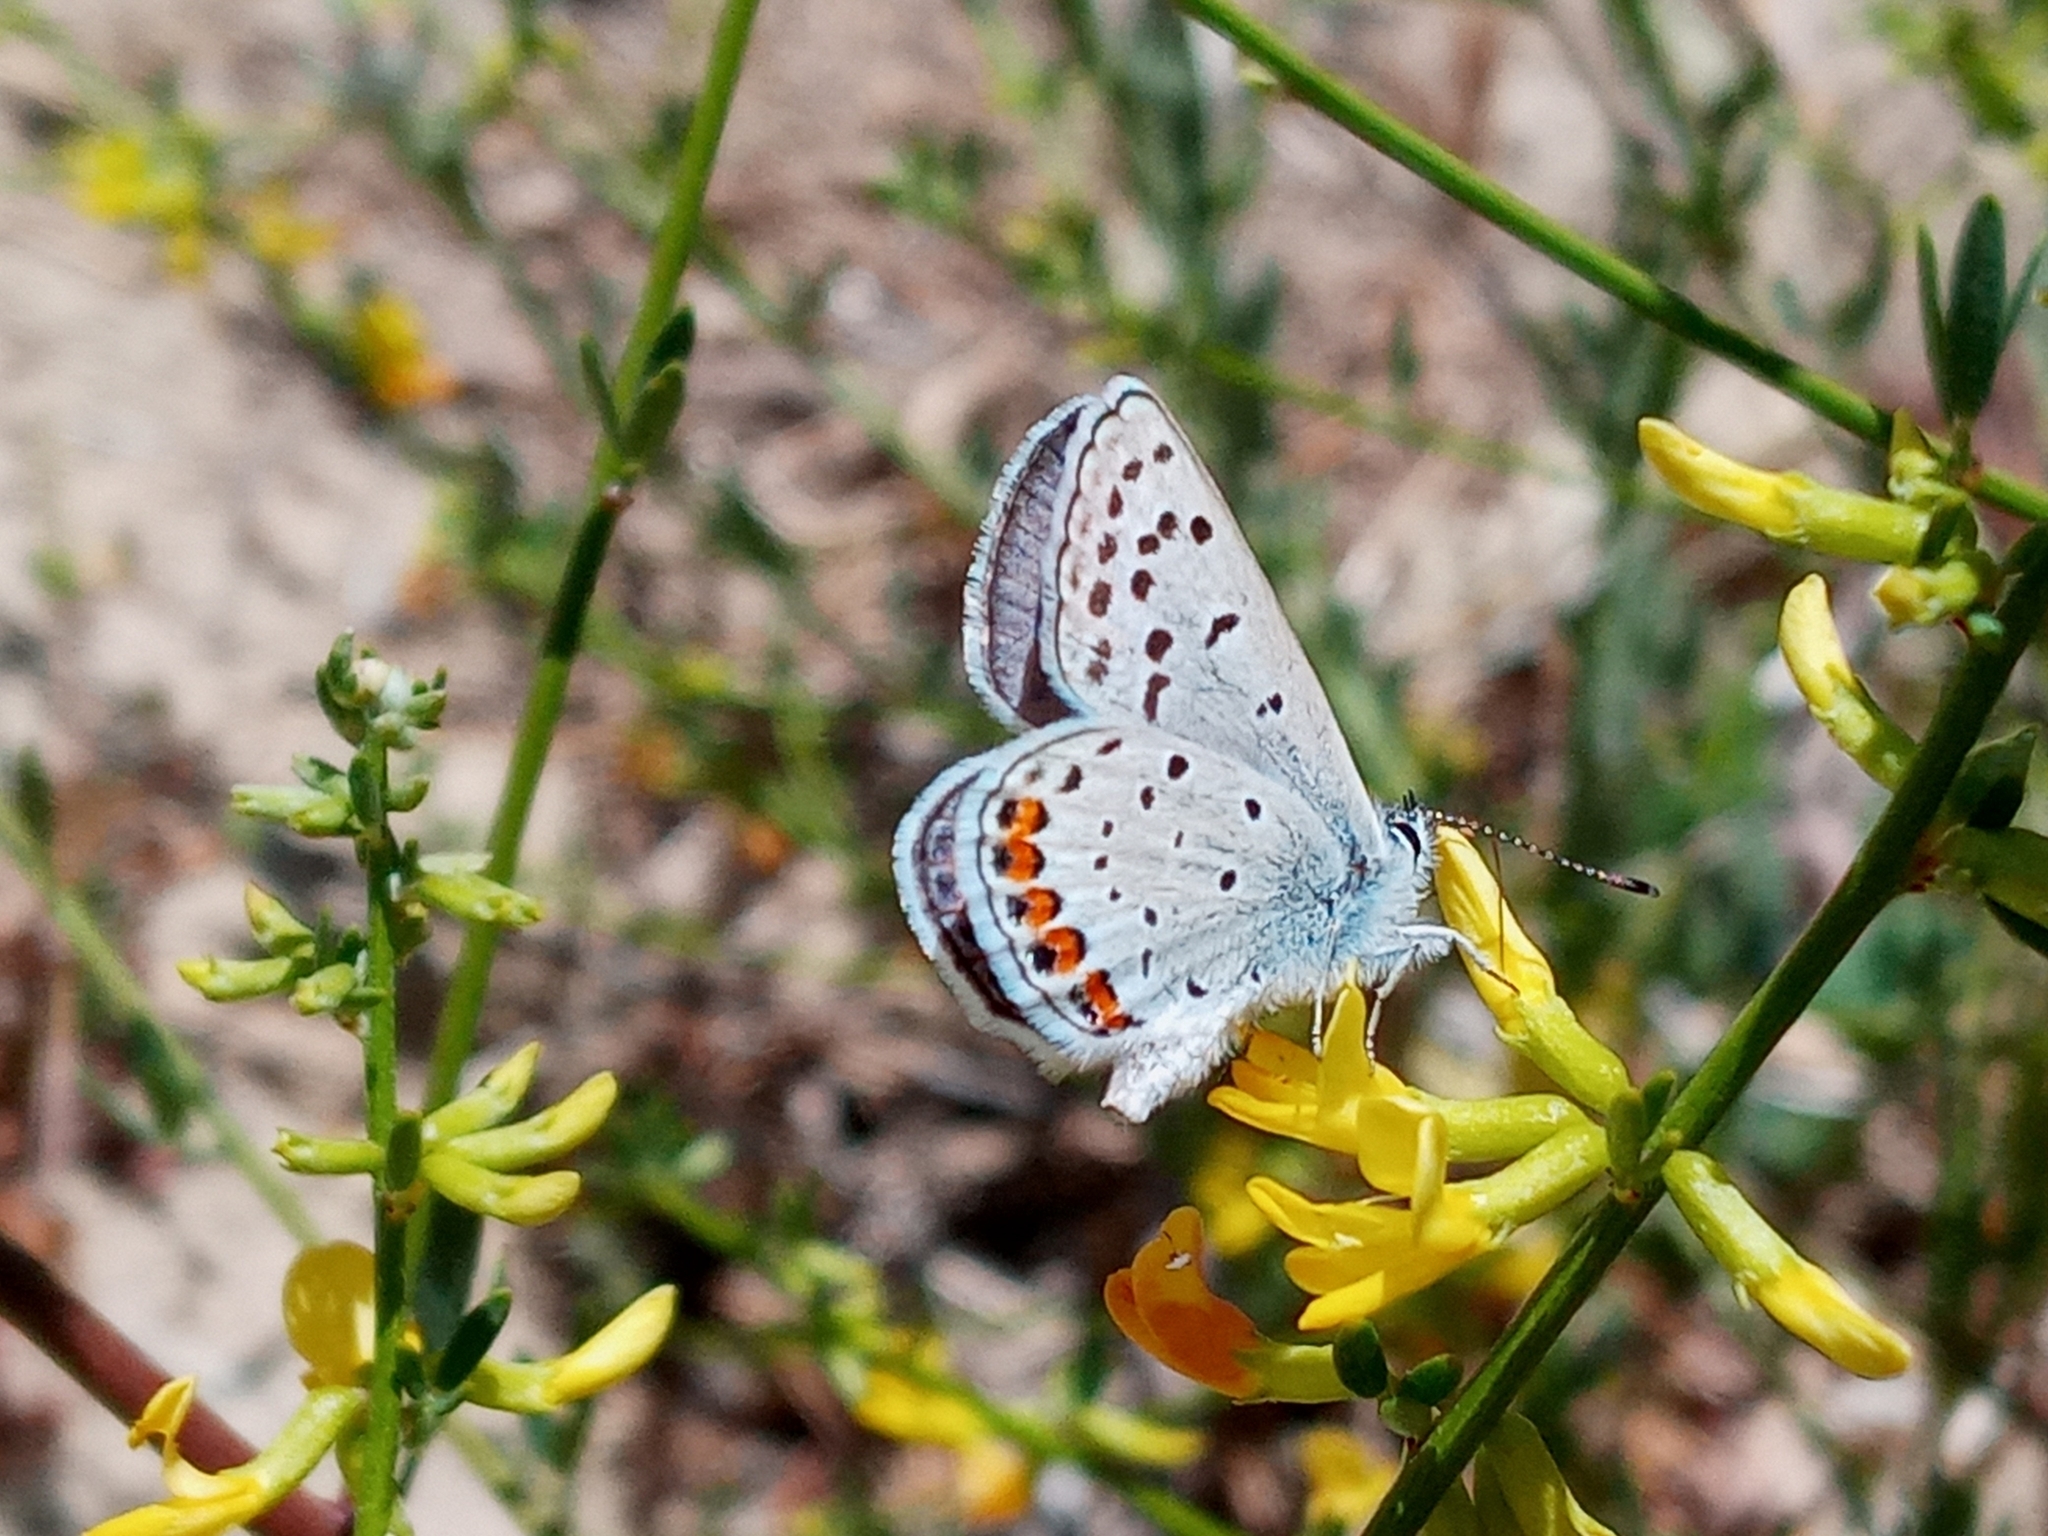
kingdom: Animalia
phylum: Arthropoda
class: Insecta
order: Lepidoptera
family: Lycaenidae
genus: Icaricia
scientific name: Icaricia acmon
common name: Acmon blue
